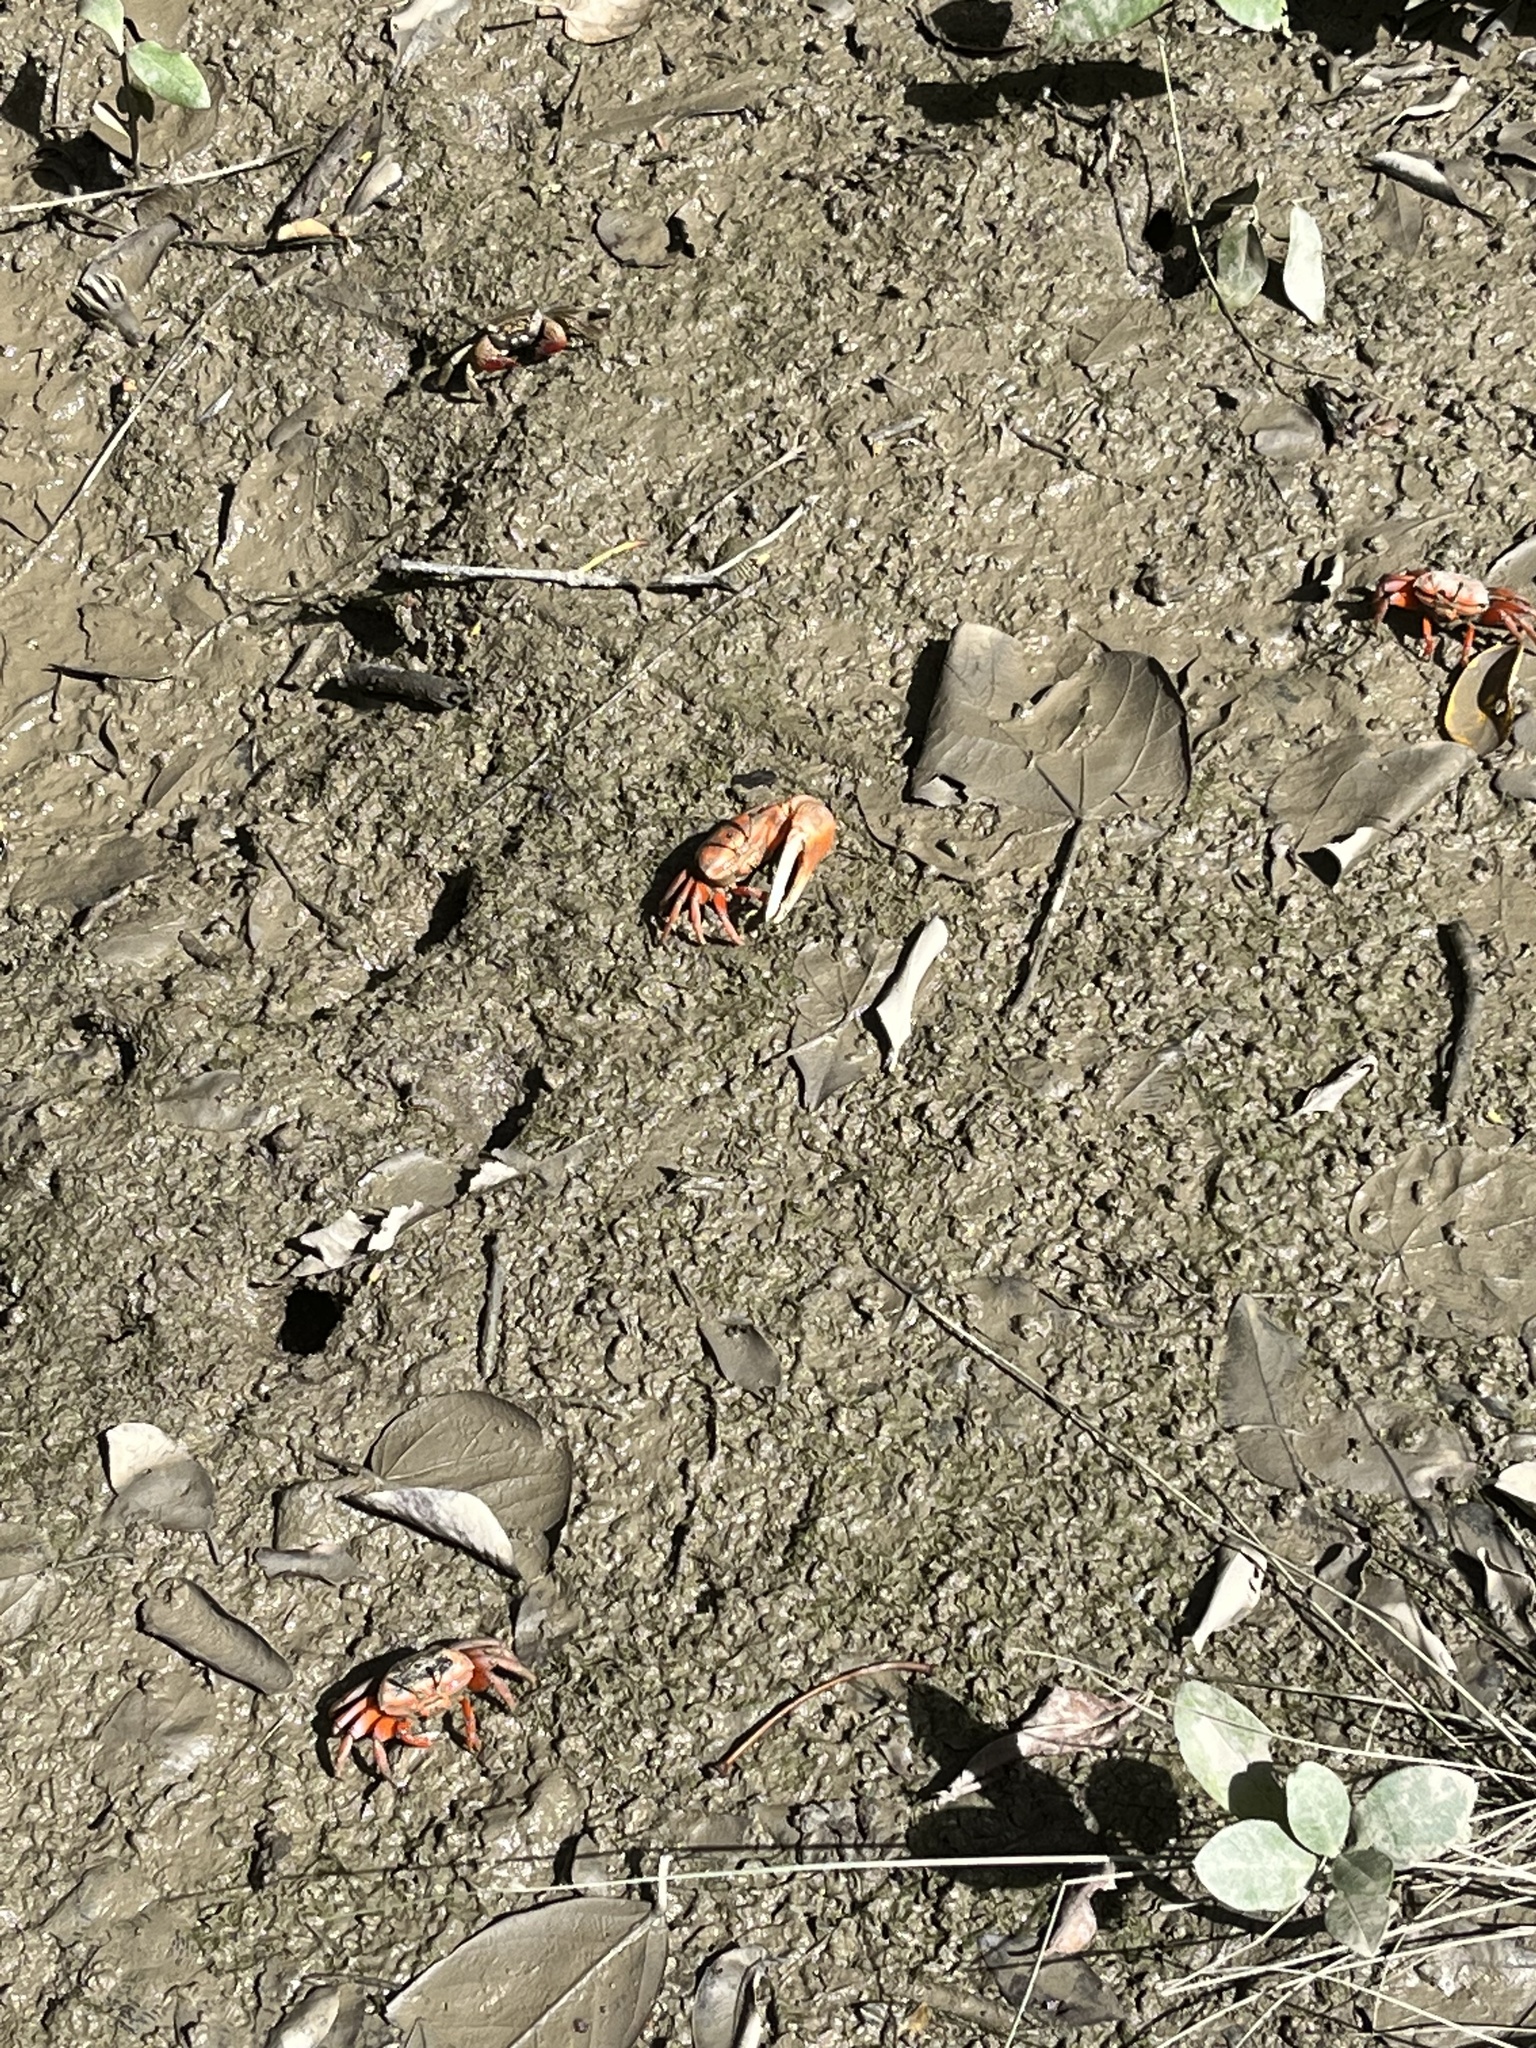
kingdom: Animalia
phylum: Arthropoda
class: Malacostraca
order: Decapoda
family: Ocypodidae
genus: Tubuca
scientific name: Tubuca arcuata
